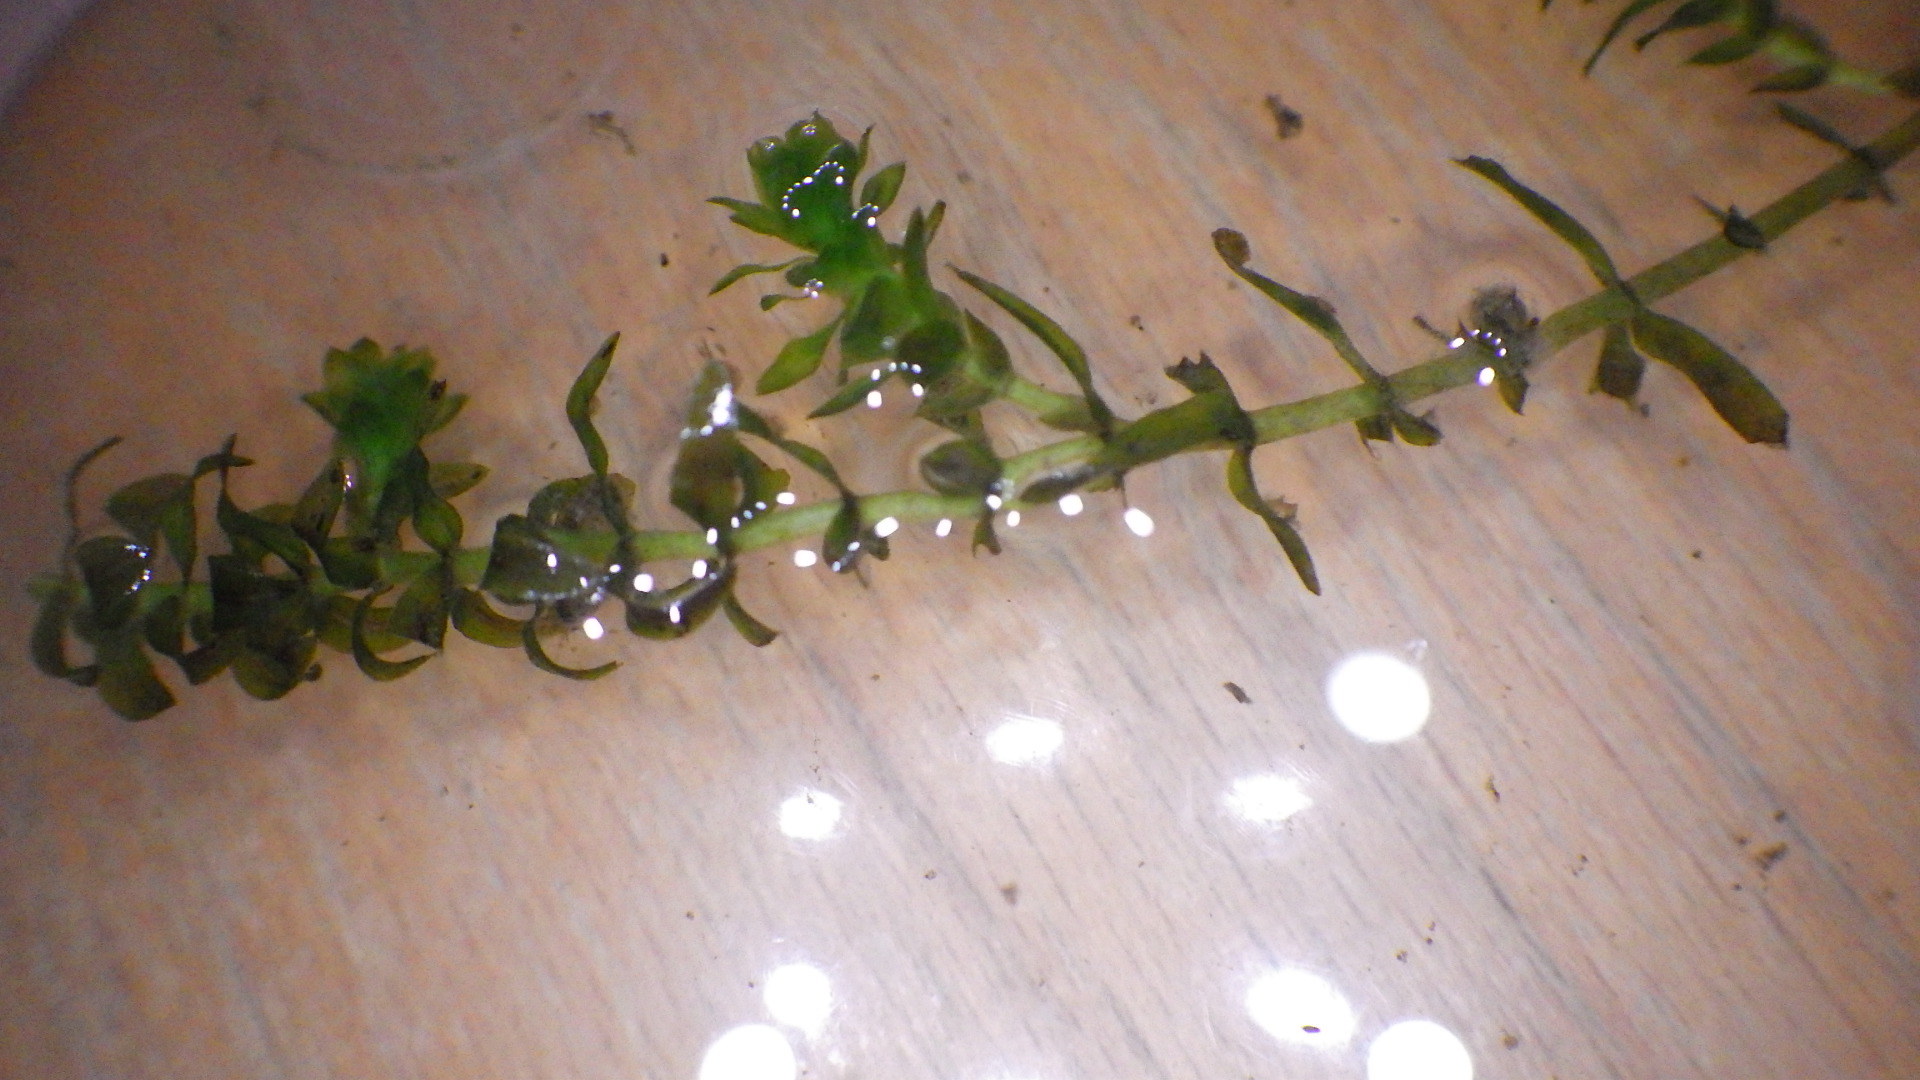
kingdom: Plantae
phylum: Tracheophyta
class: Liliopsida
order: Alismatales
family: Hydrocharitaceae
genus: Elodea
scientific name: Elodea canadensis
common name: Canadian waterweed
